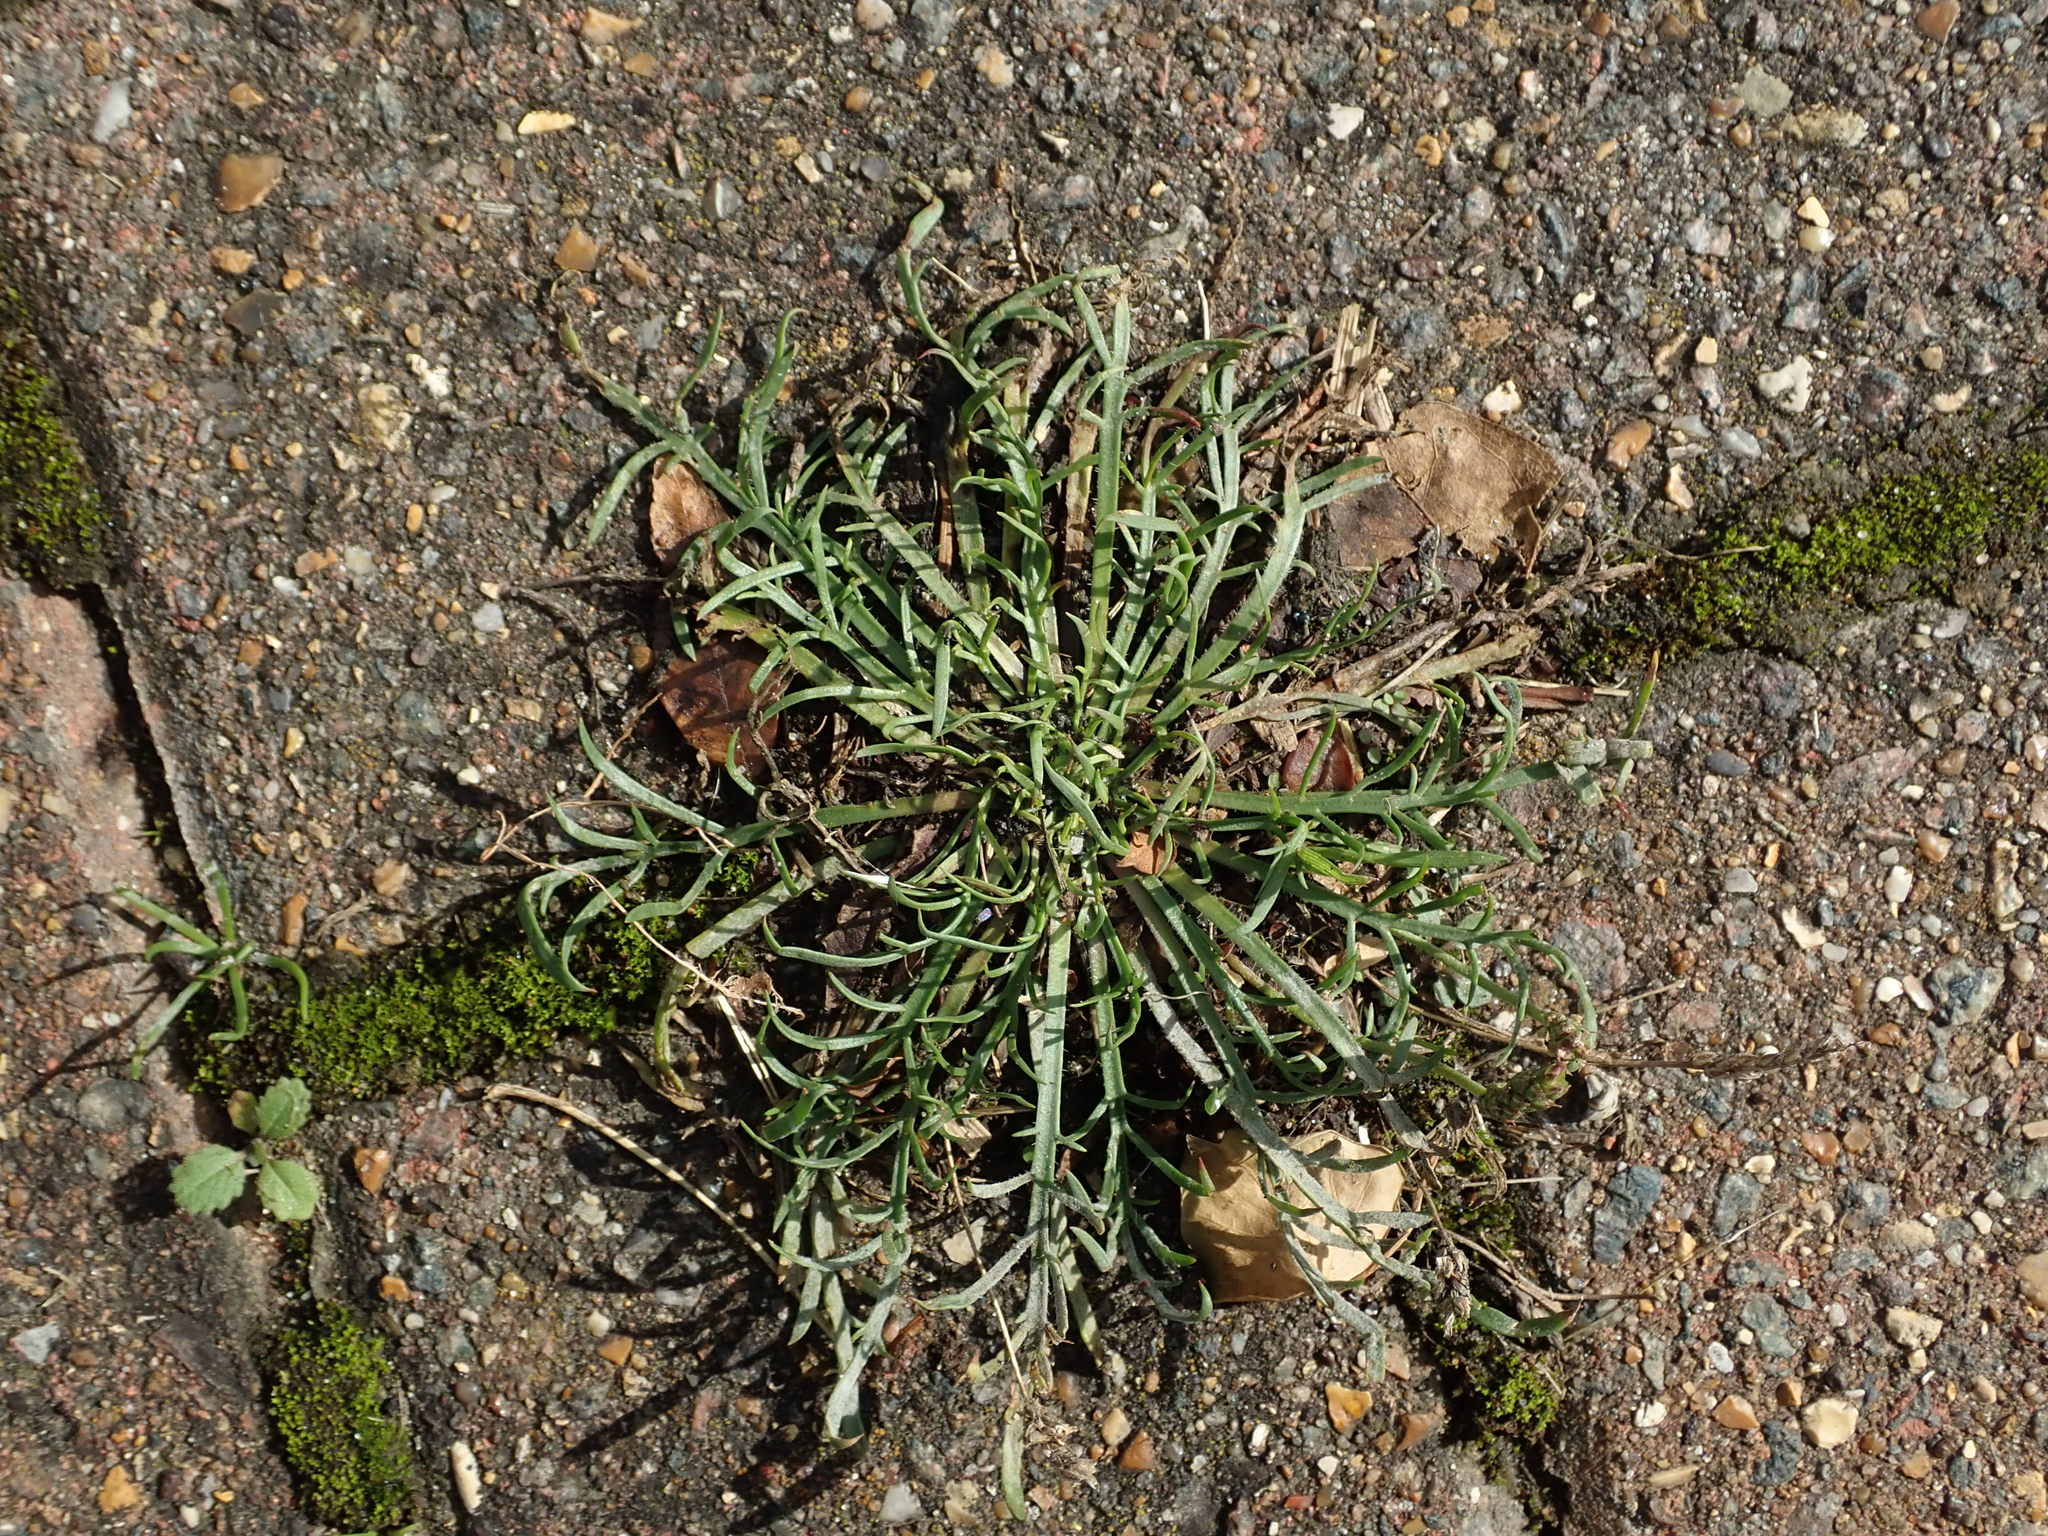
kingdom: Plantae
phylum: Tracheophyta
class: Magnoliopsida
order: Lamiales
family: Plantaginaceae
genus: Plantago
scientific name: Plantago coronopus
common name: Buck's-horn plantain
